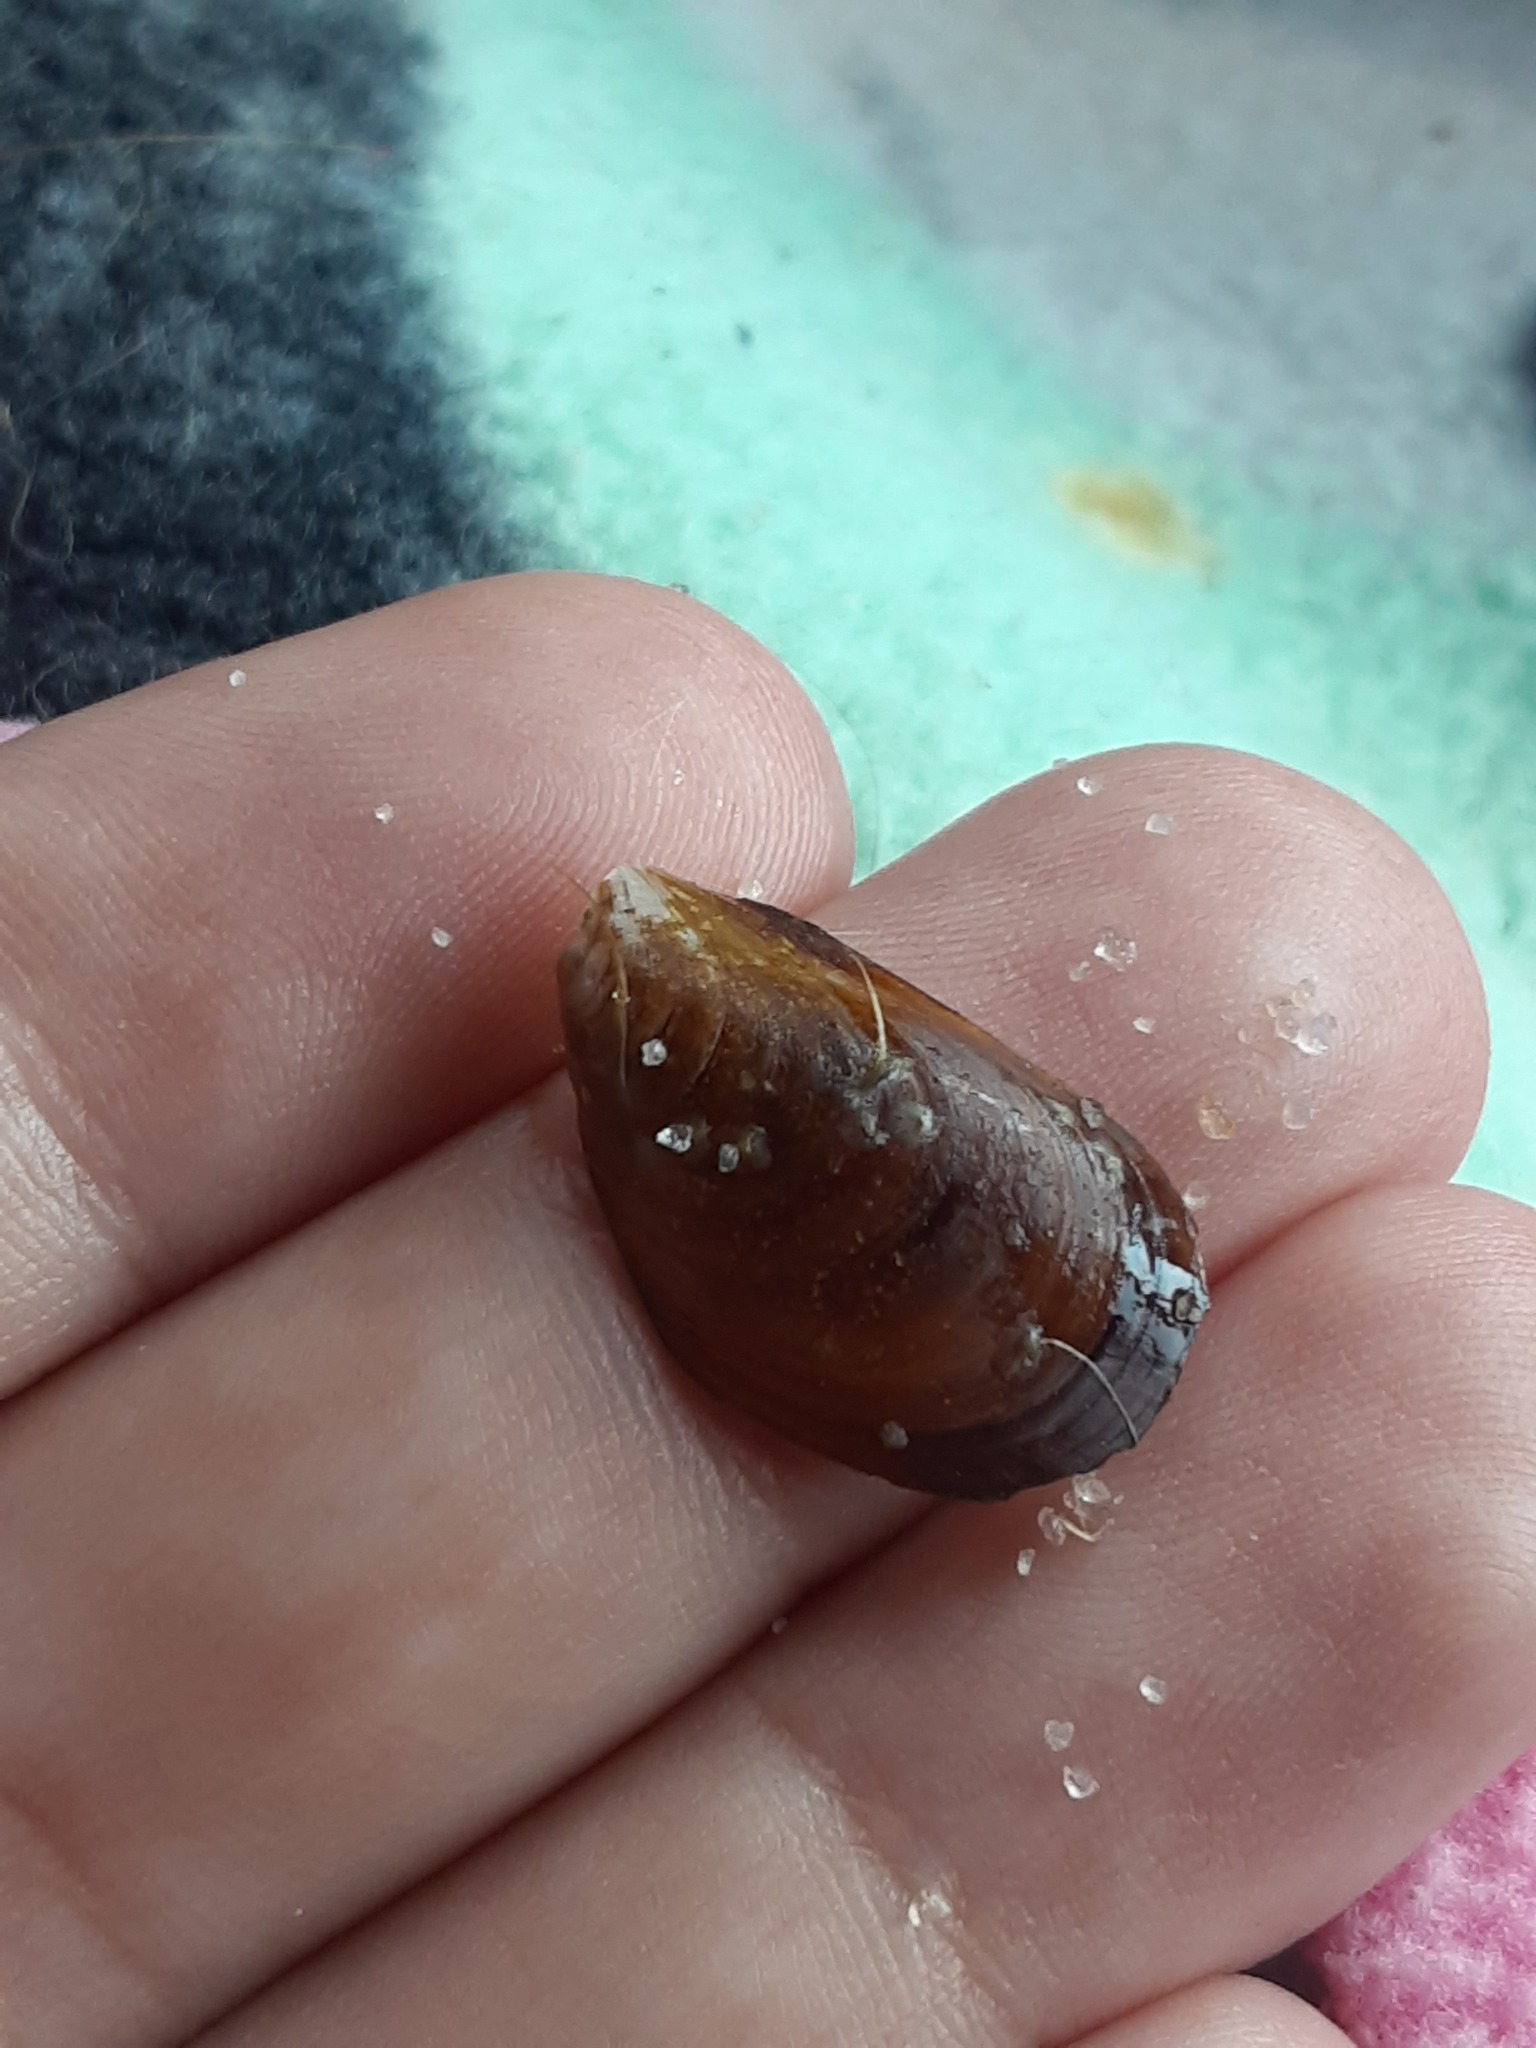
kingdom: Animalia
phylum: Mollusca
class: Bivalvia
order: Mytilida
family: Mytilidae
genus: Mytilus
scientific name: Mytilus edulis
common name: Blue mussel
